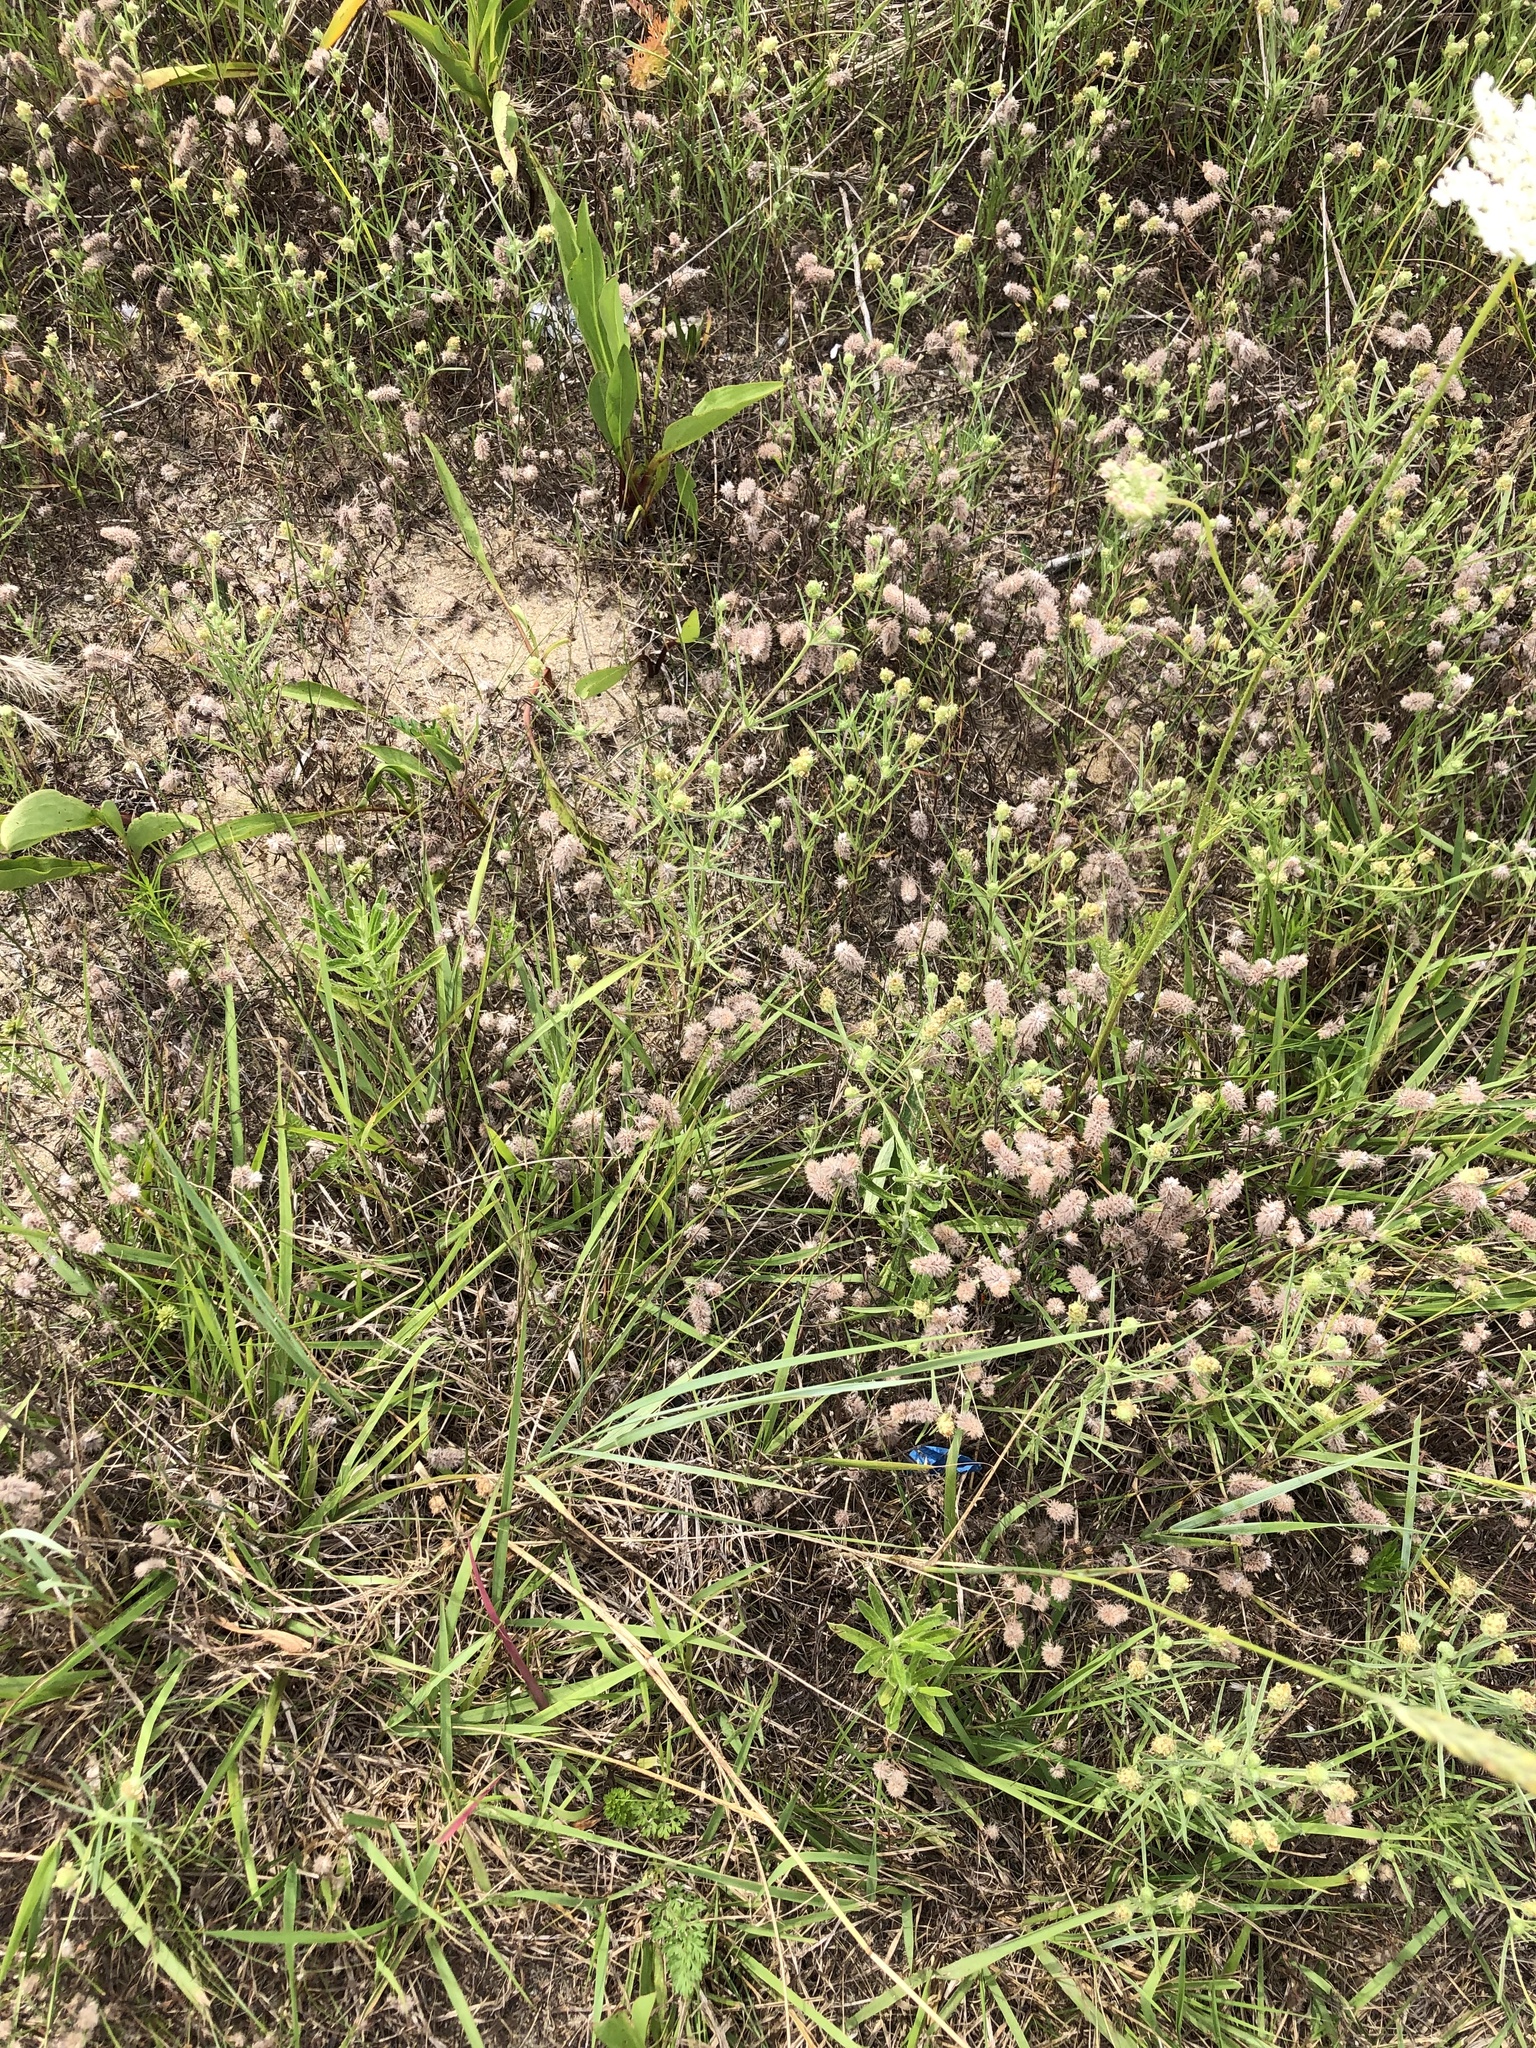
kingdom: Plantae
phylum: Tracheophyta
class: Magnoliopsida
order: Fabales
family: Fabaceae
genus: Trifolium
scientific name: Trifolium arvense
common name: Hare's-foot clover
